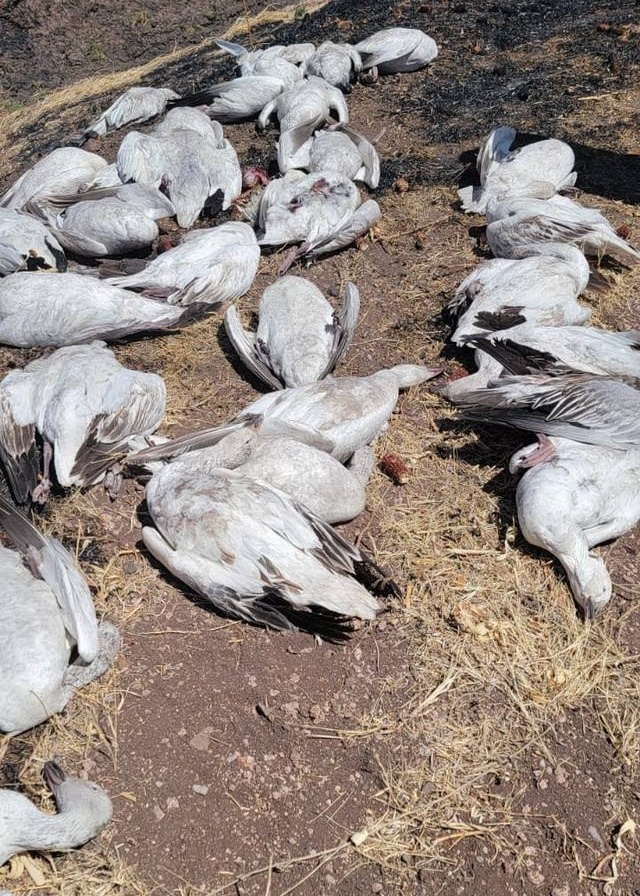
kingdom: Animalia
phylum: Chordata
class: Aves
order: Anseriformes
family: Anatidae
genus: Anser
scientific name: Anser caerulescens
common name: Snow goose
